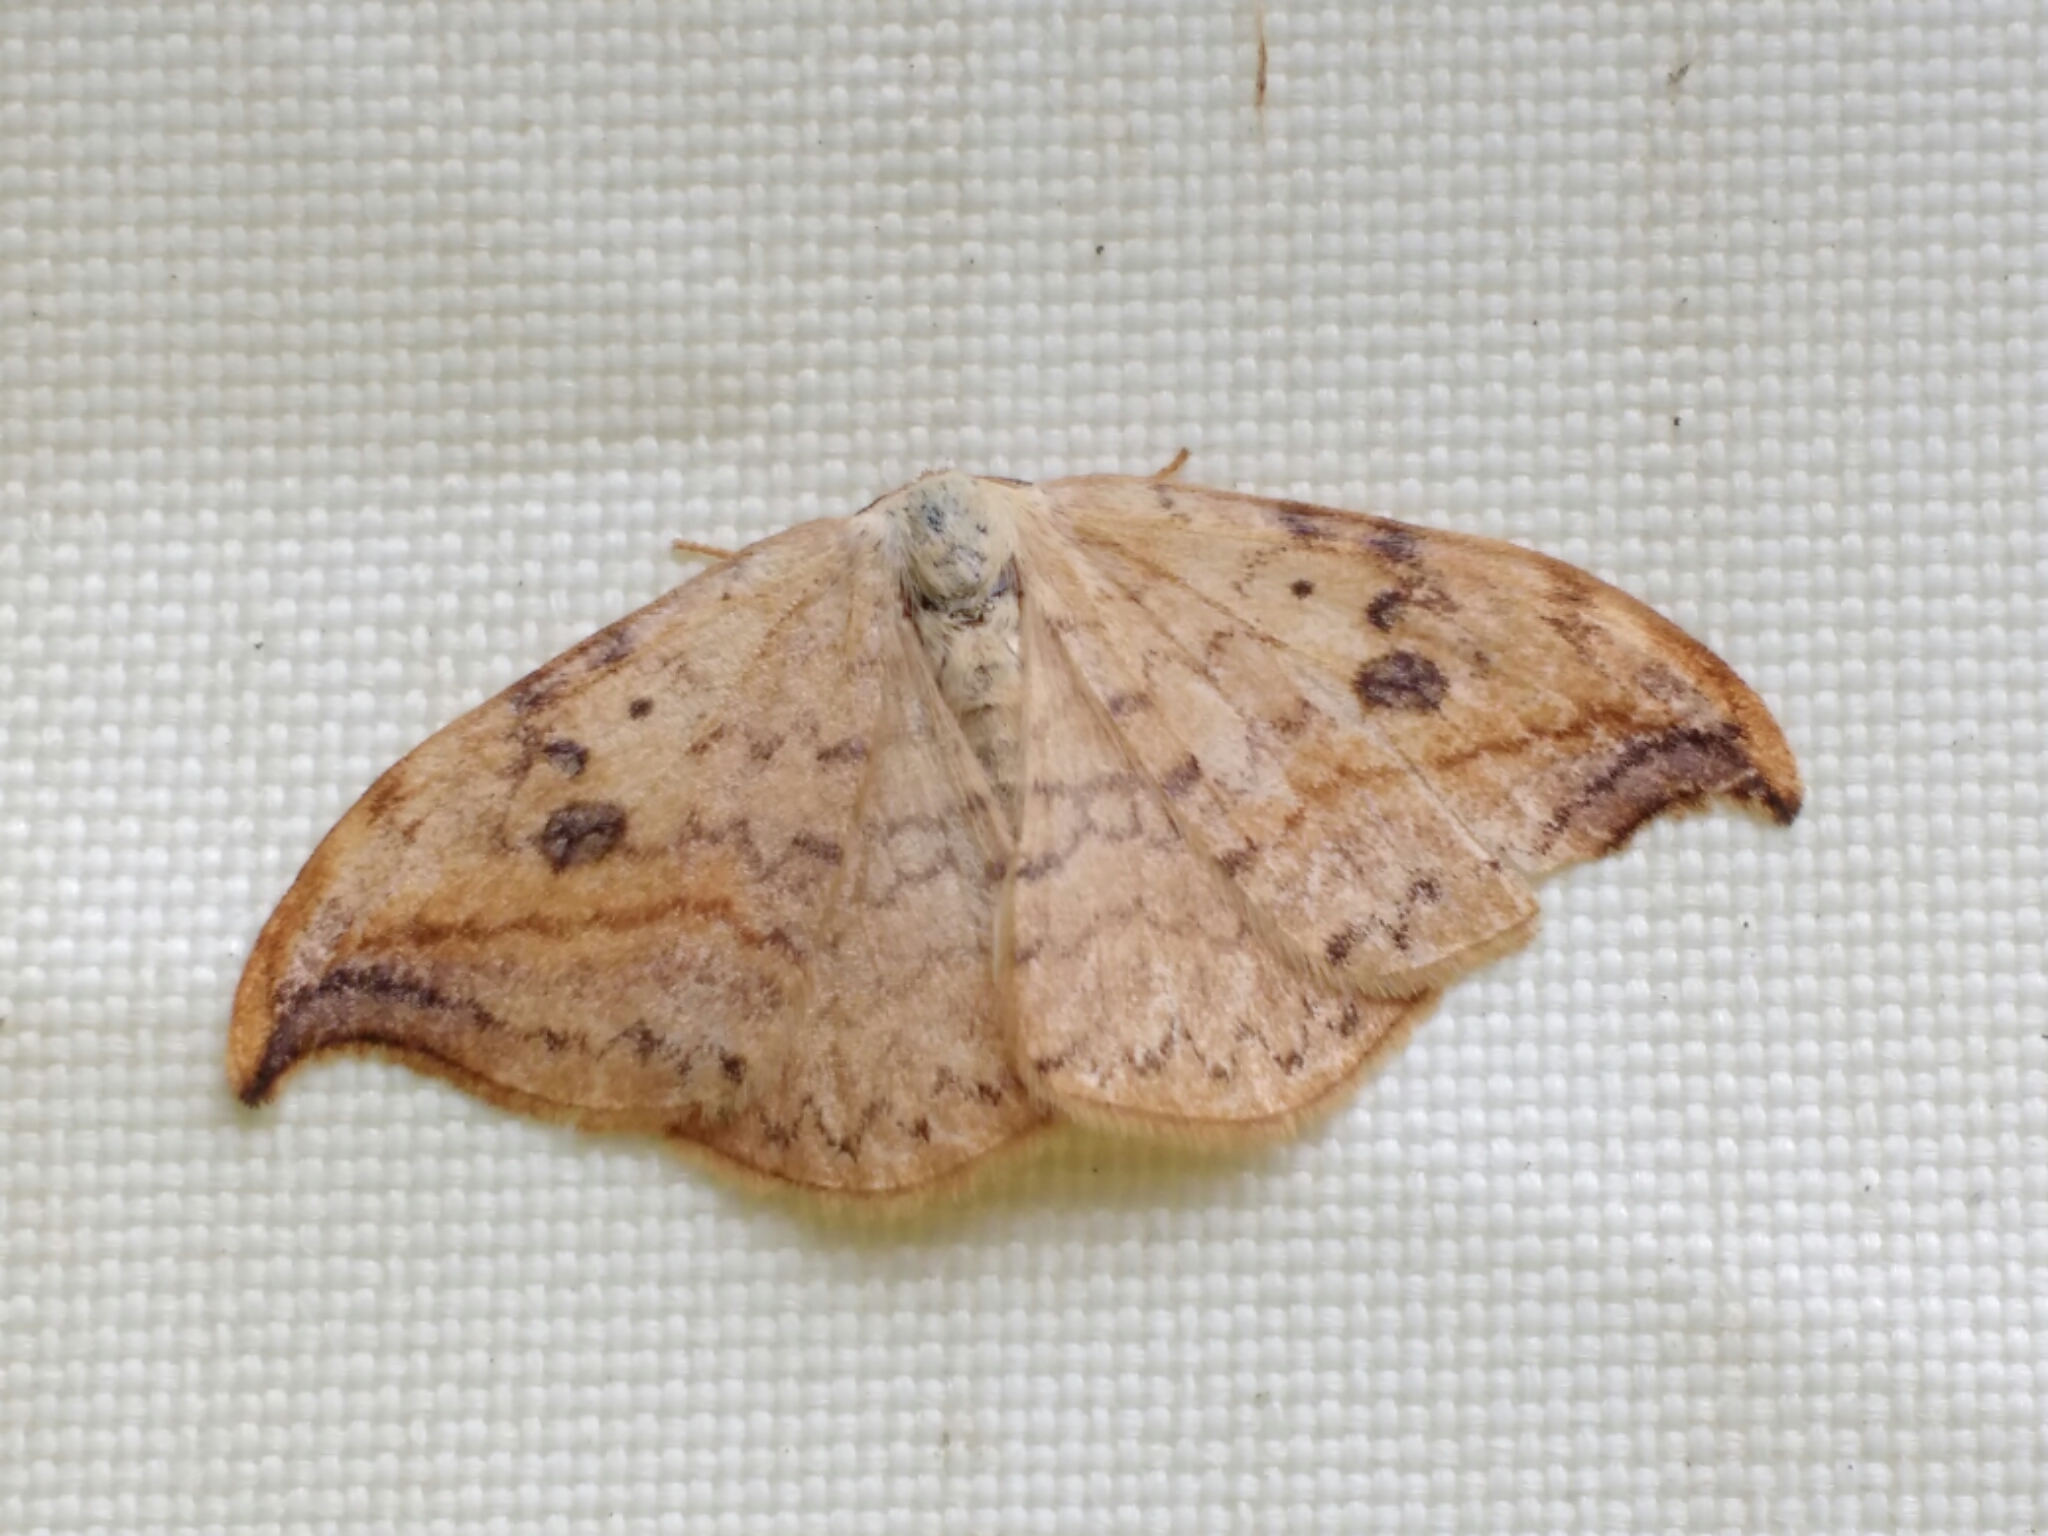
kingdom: Animalia
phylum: Arthropoda
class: Insecta
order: Lepidoptera
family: Drepanidae
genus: Drepana
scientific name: Drepana falcataria
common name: Pebble hook-tip
